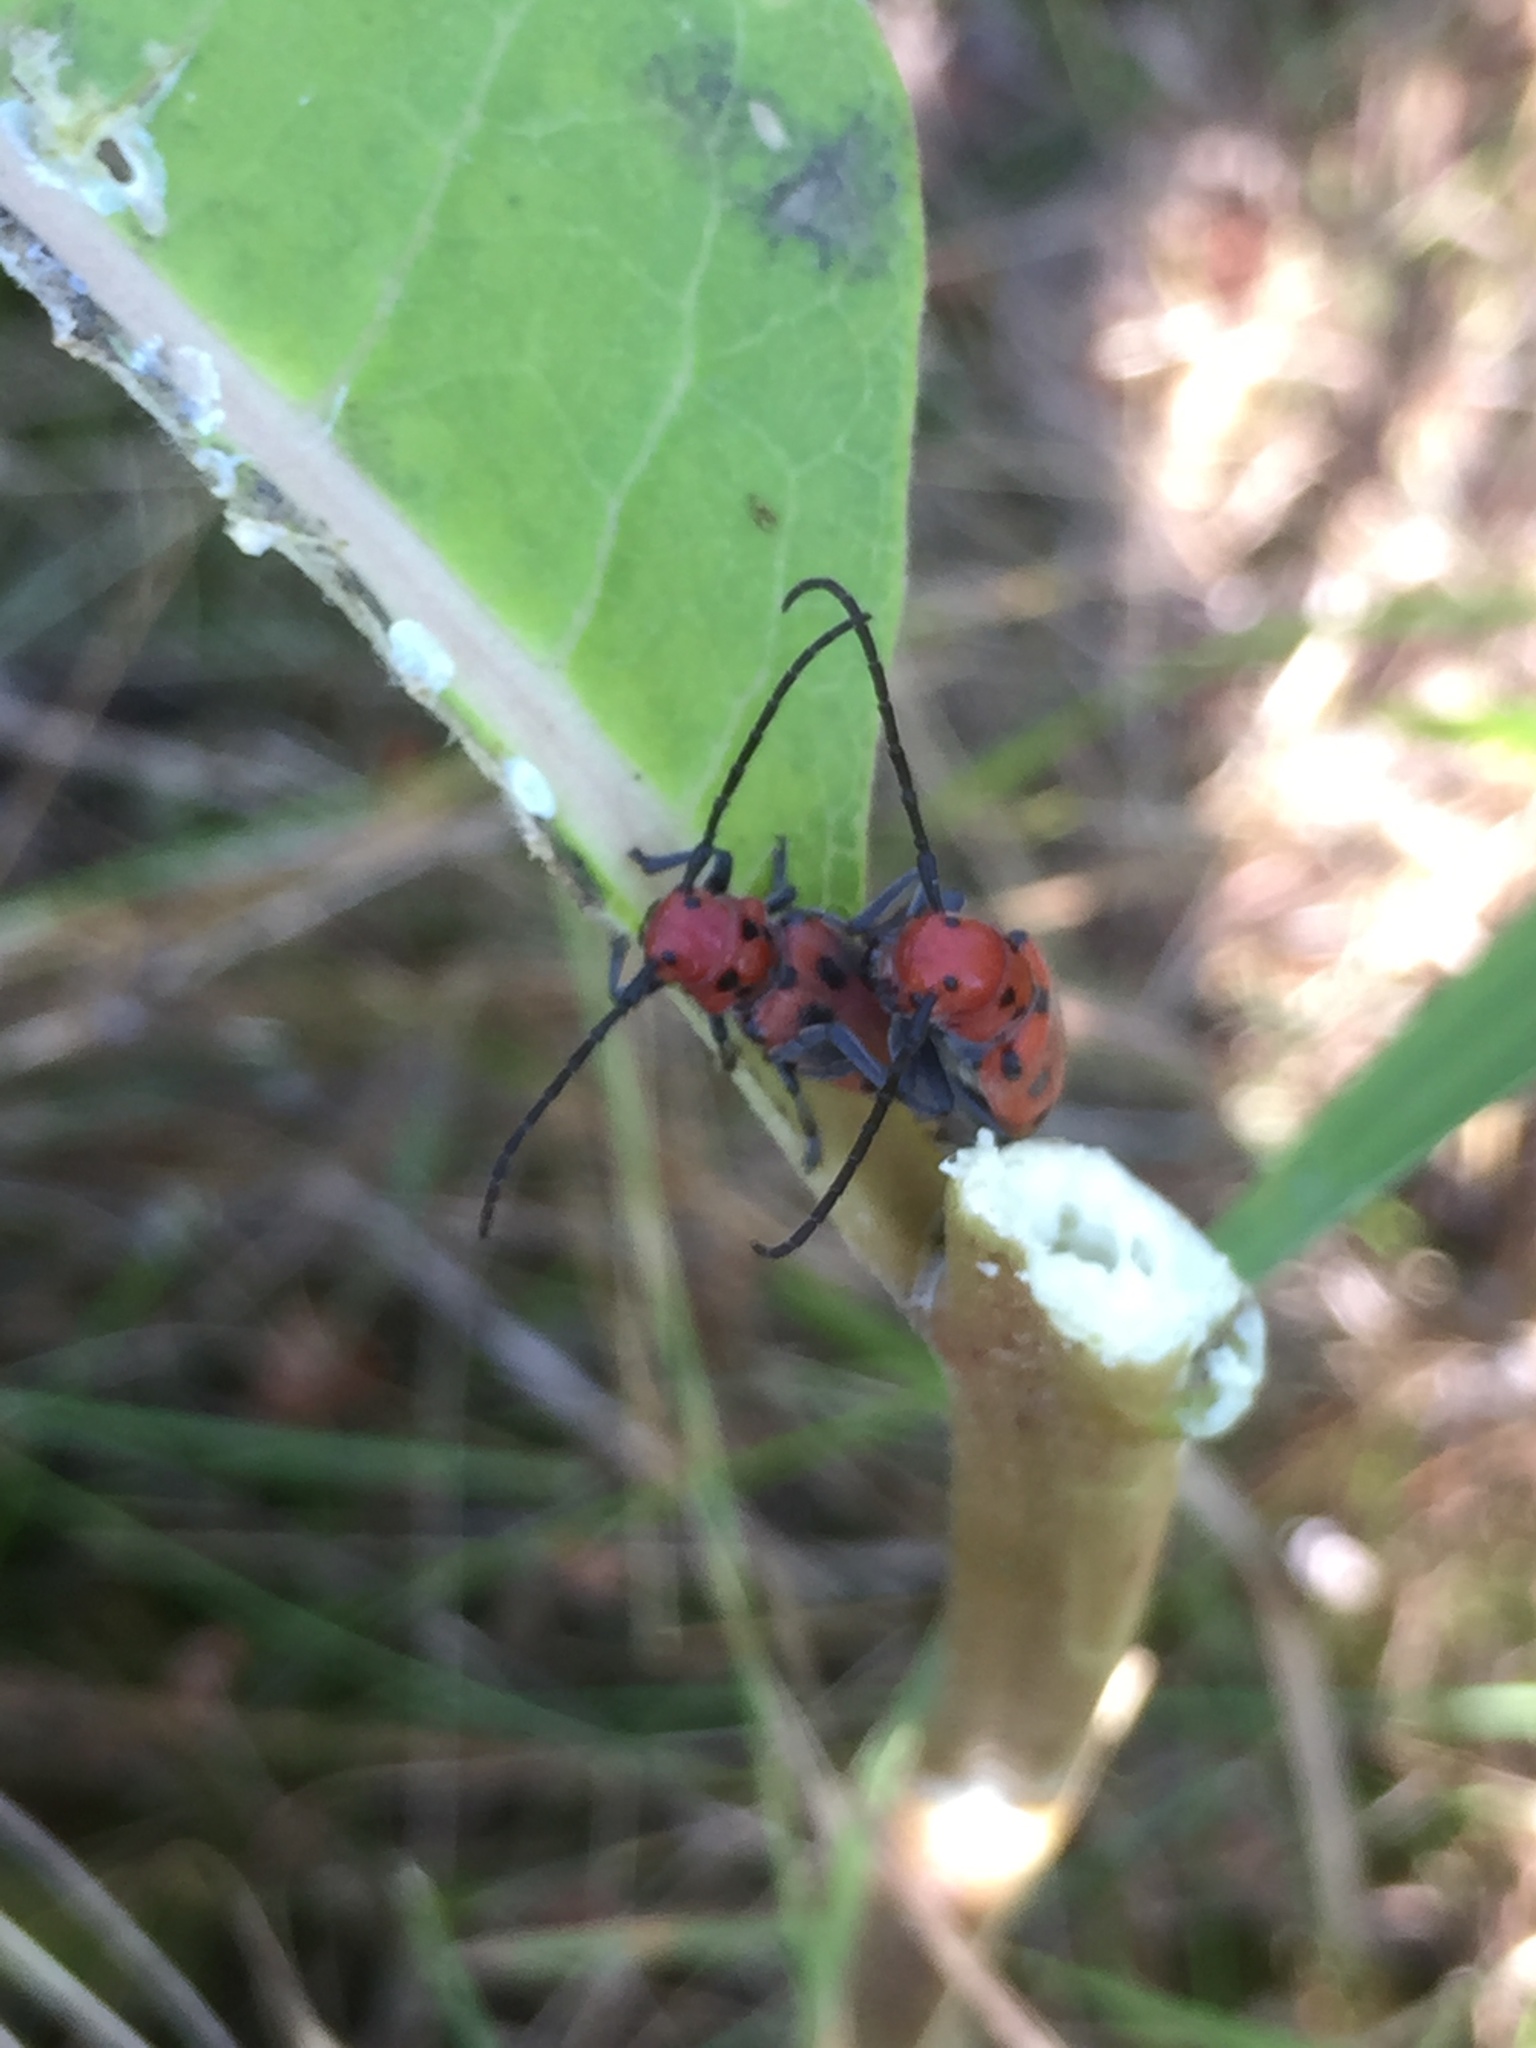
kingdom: Animalia
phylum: Arthropoda
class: Insecta
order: Coleoptera
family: Cerambycidae
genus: Tetraopes
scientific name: Tetraopes tetrophthalmus
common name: Red milkweed beetle
